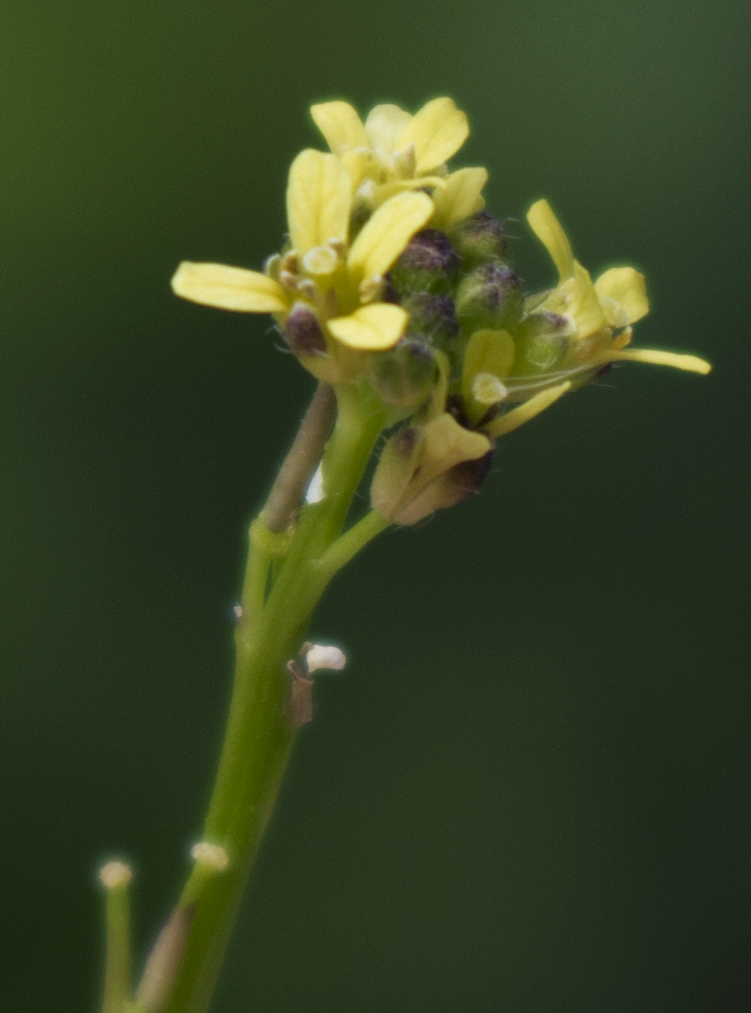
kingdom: Plantae
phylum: Tracheophyta
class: Magnoliopsida
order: Brassicales
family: Brassicaceae
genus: Sisymbrium
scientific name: Sisymbrium officinale
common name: Hedge mustard
